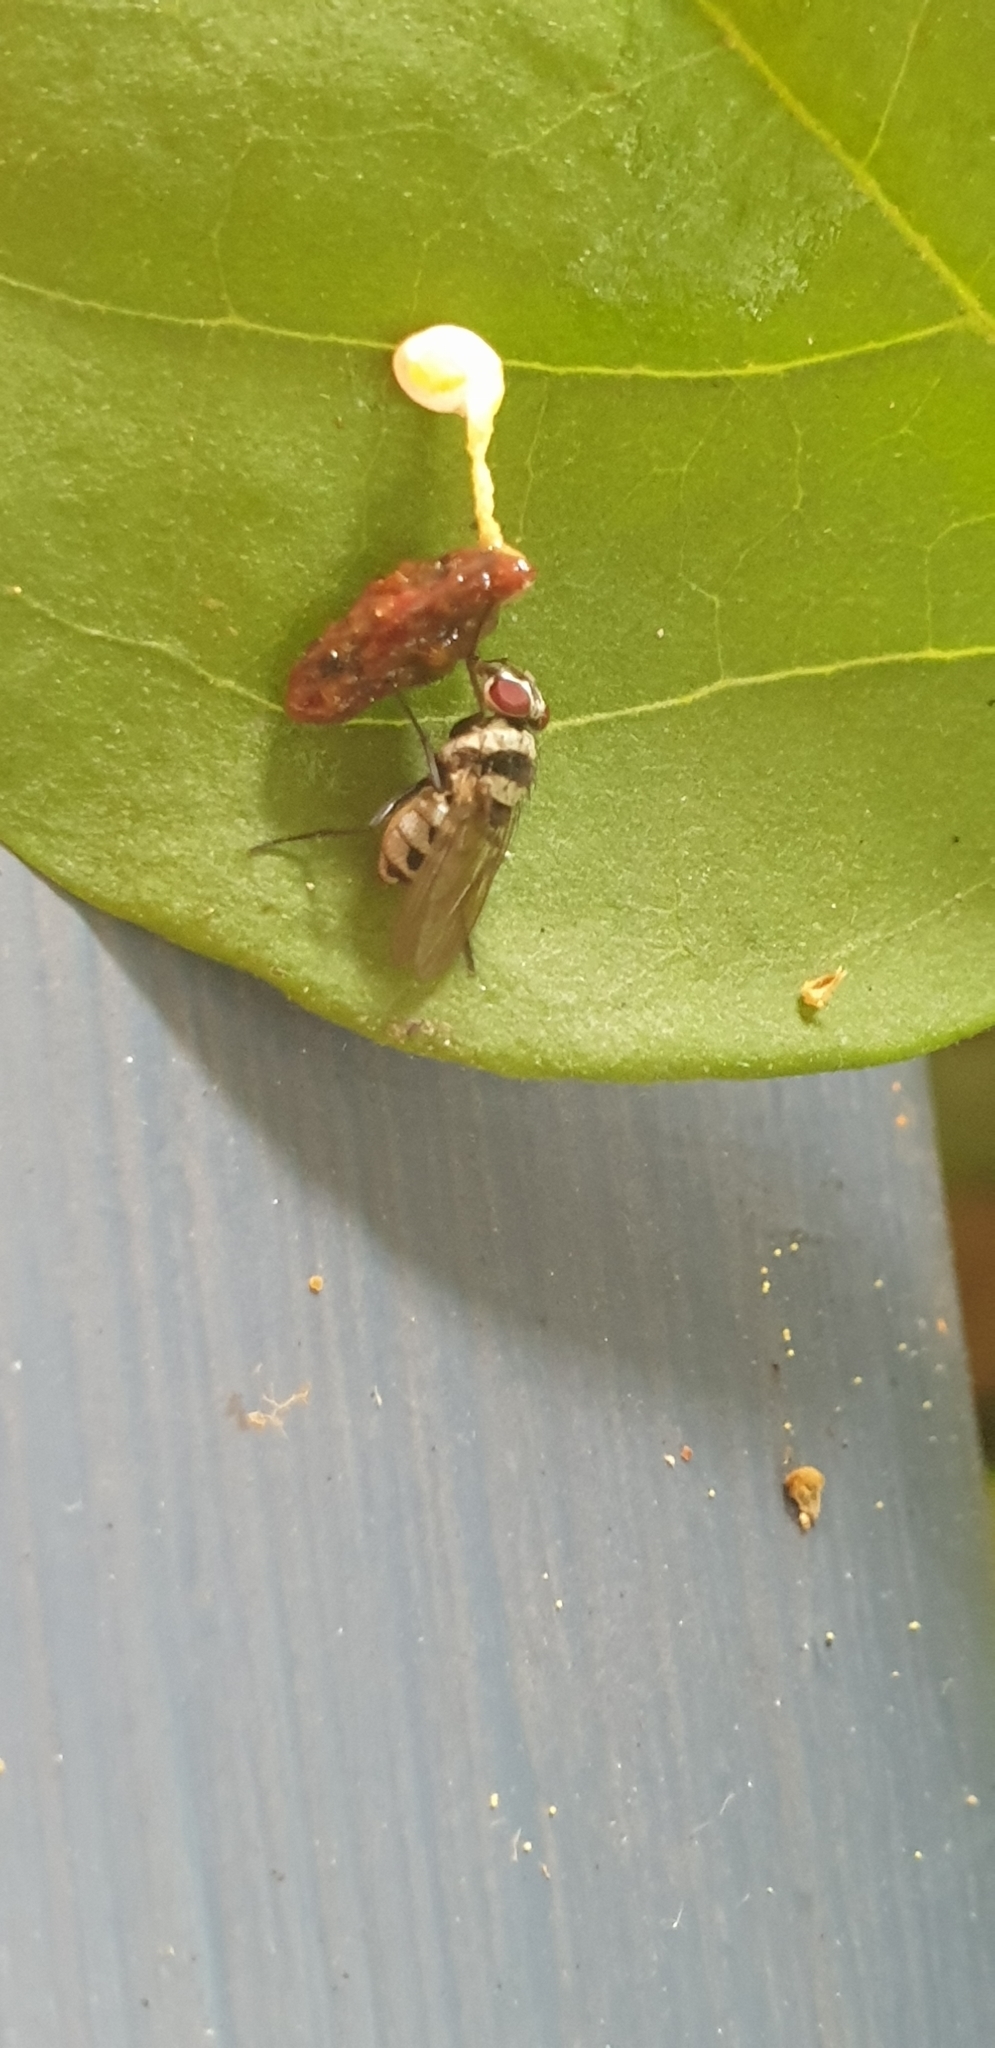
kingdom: Animalia
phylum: Arthropoda
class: Insecta
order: Diptera
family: Anthomyiidae
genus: Anthomyia
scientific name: Anthomyia medialis
